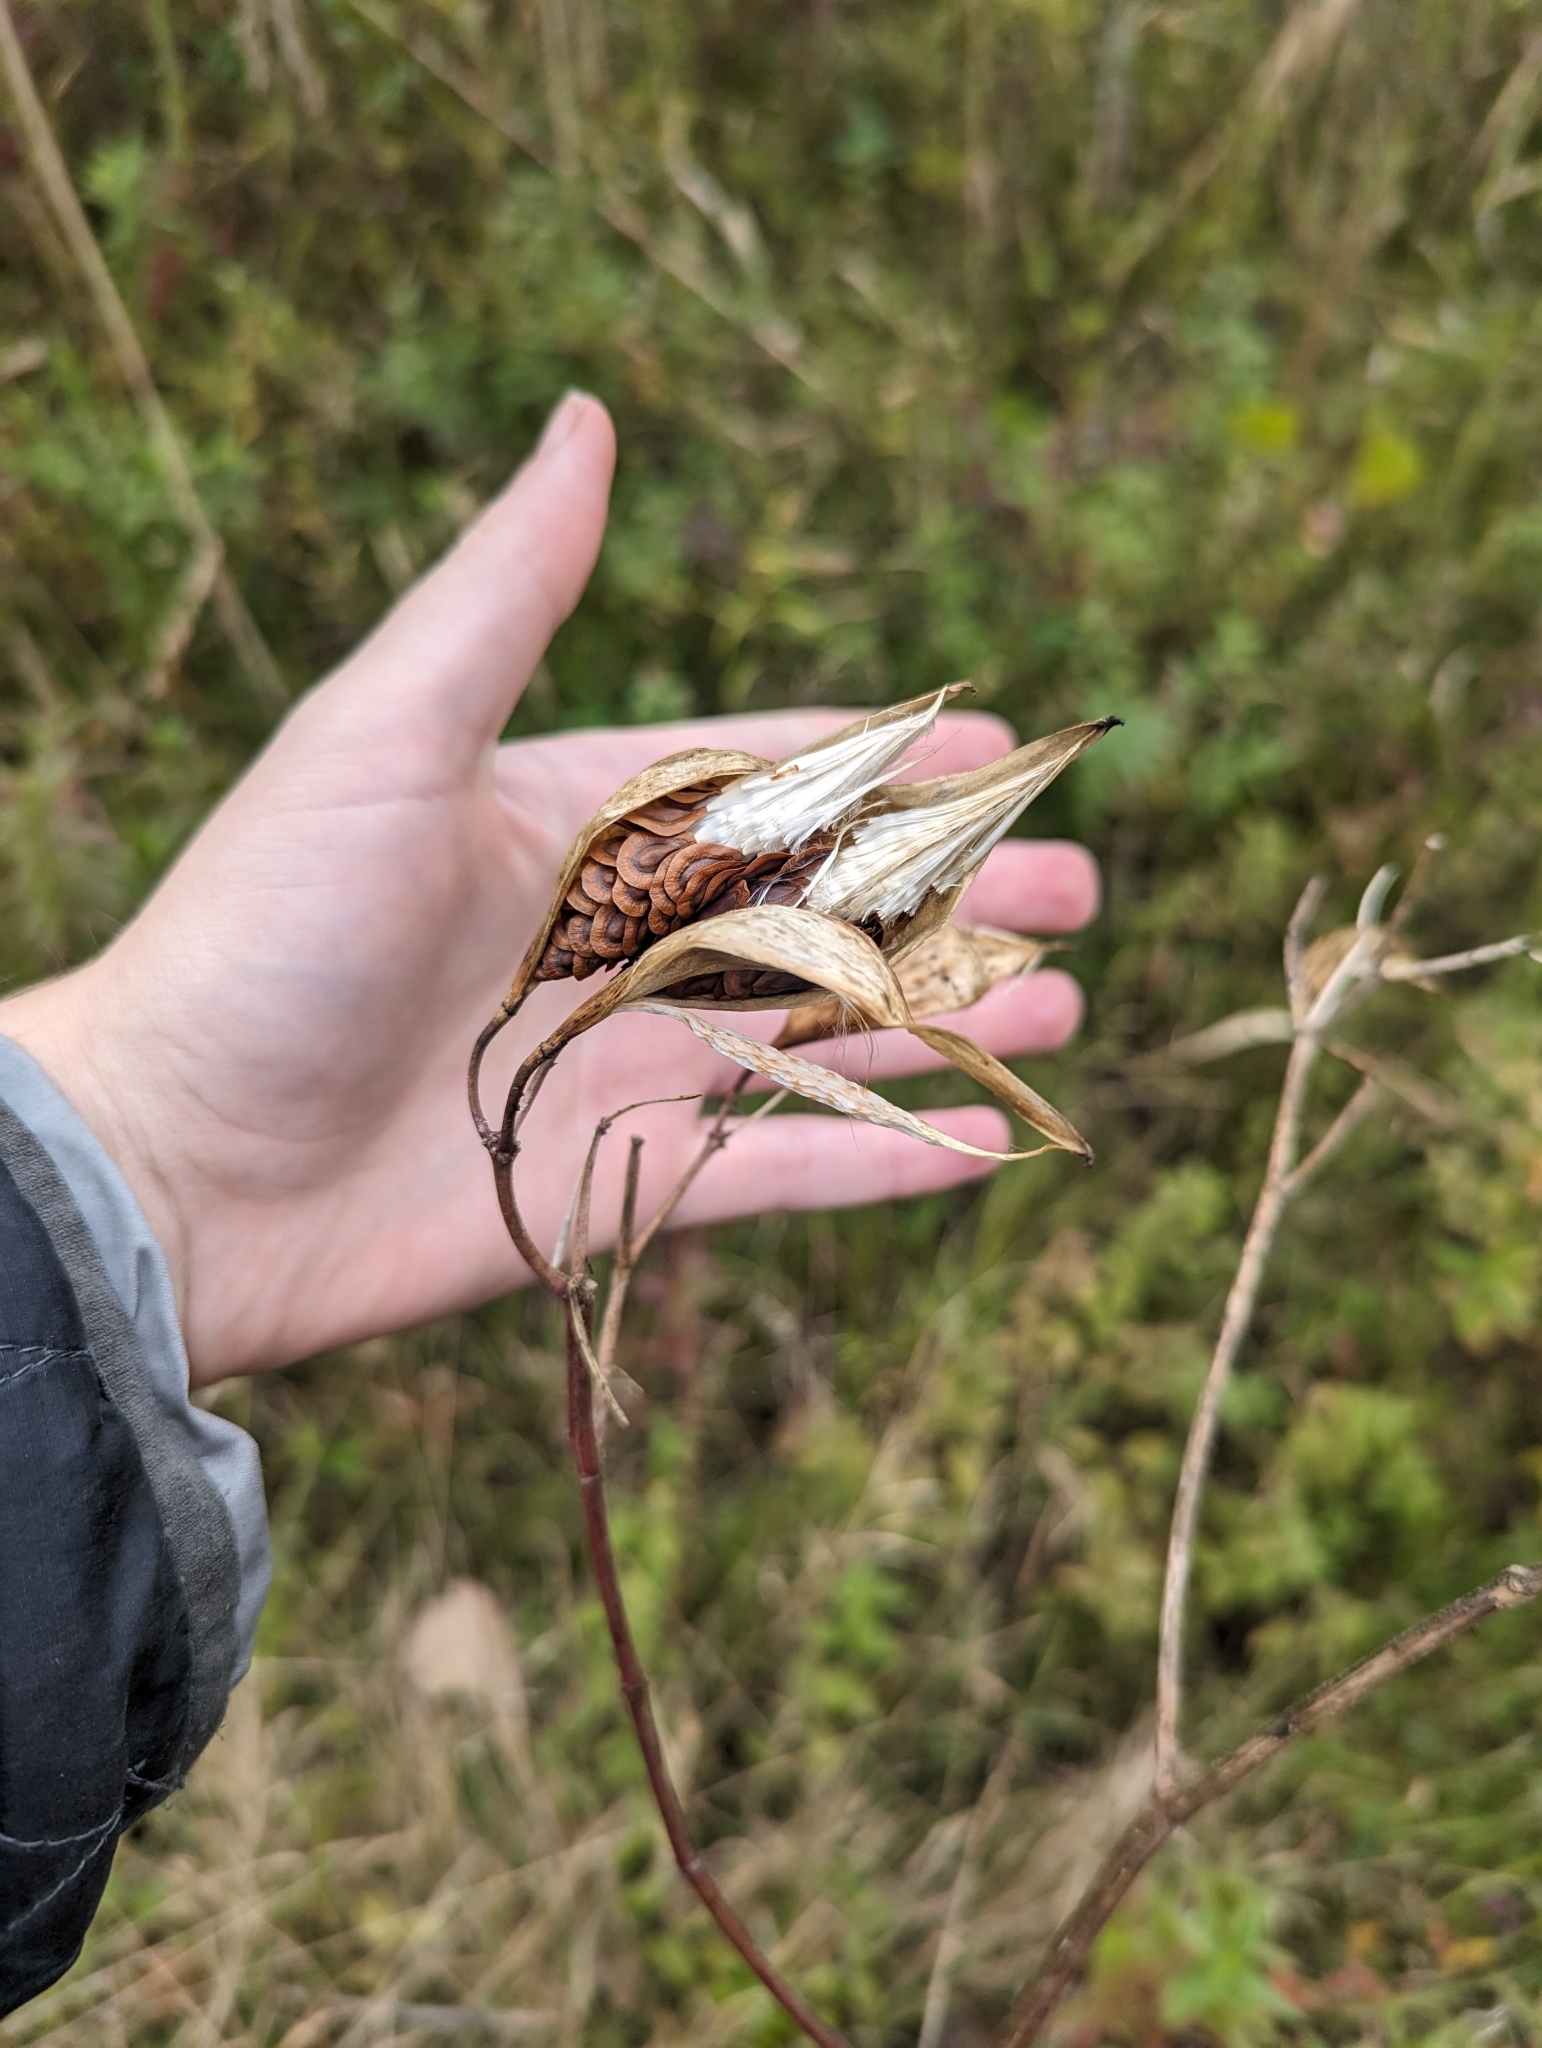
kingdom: Plantae
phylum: Tracheophyta
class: Magnoliopsida
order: Gentianales
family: Apocynaceae
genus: Asclepias
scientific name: Asclepias incarnata
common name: Swamp milkweed
